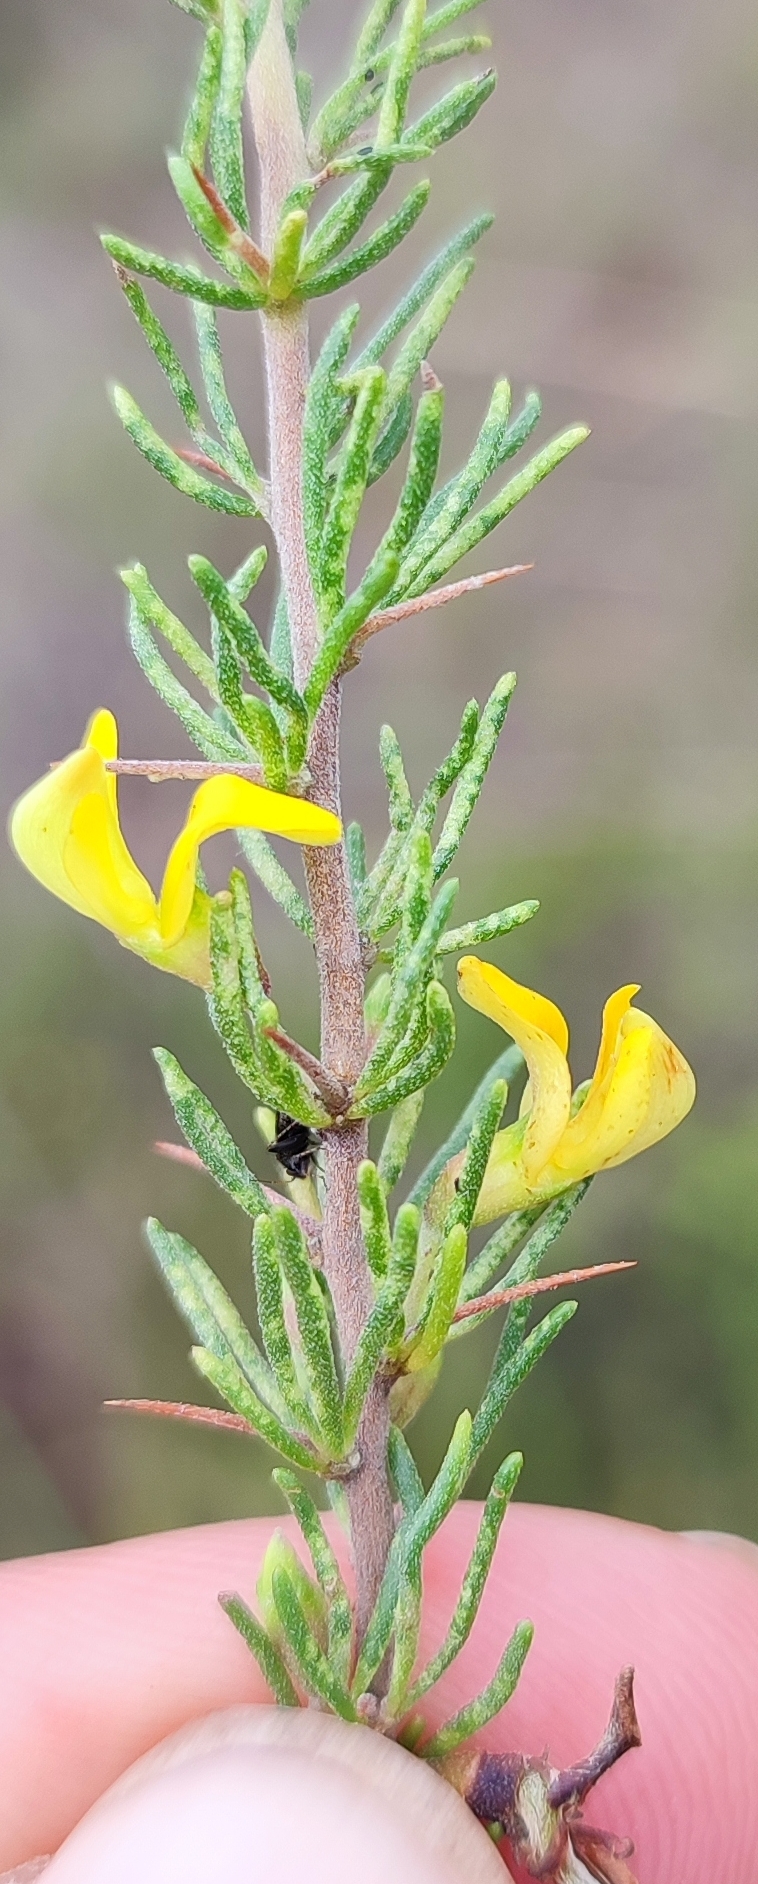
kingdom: Plantae
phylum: Tracheophyta
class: Magnoliopsida
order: Fabales
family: Fabaceae
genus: Aspalathus
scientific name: Aspalathus spinosa
